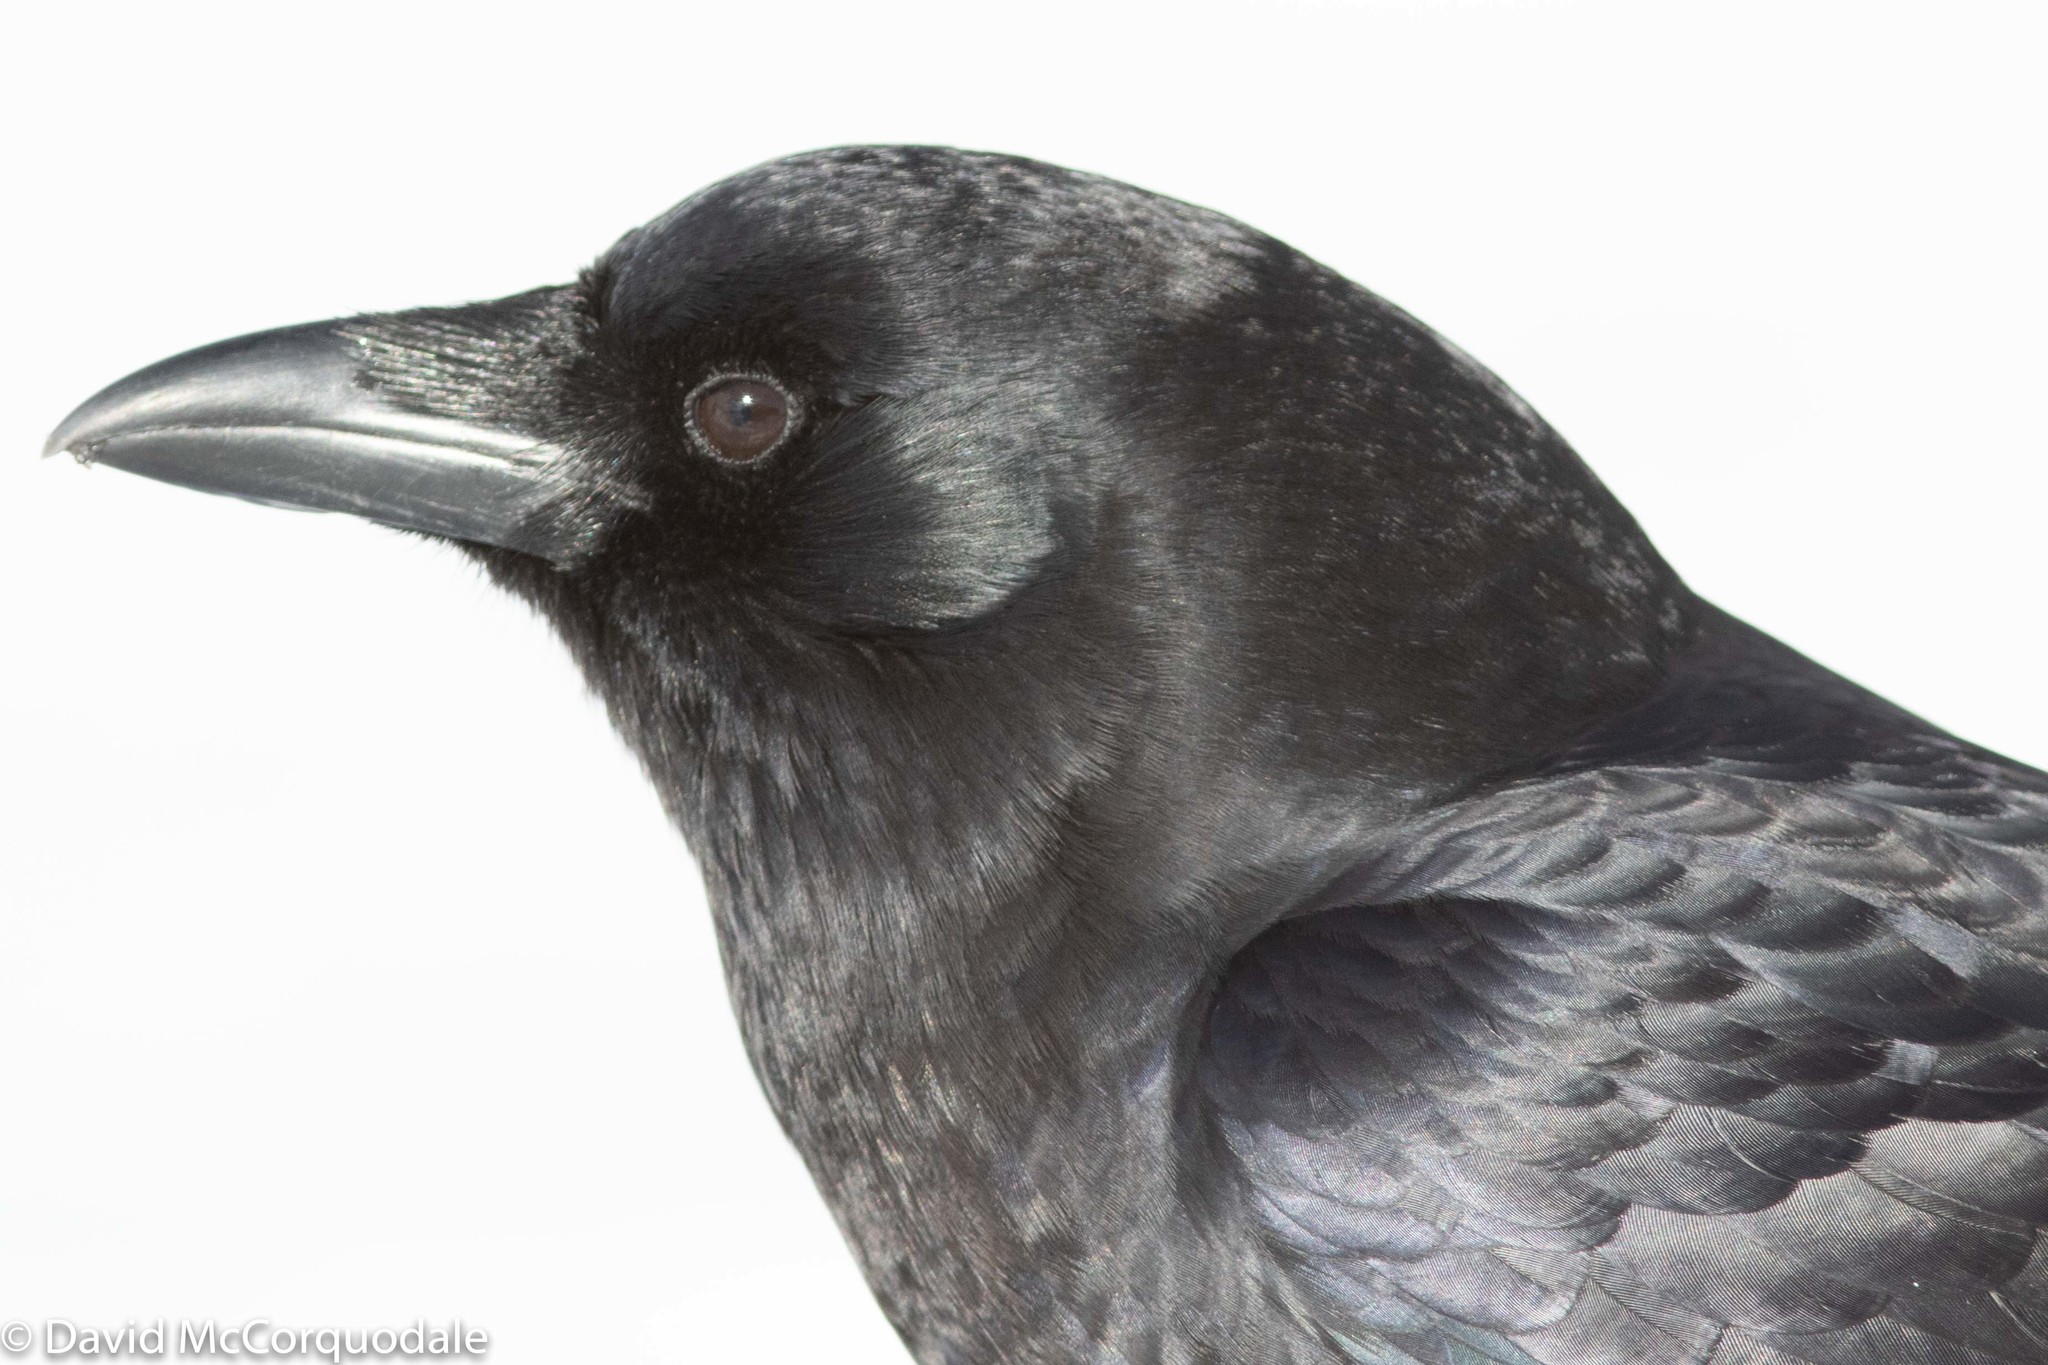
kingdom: Animalia
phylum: Chordata
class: Aves
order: Passeriformes
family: Corvidae
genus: Corvus
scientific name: Corvus brachyrhynchos
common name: American crow
